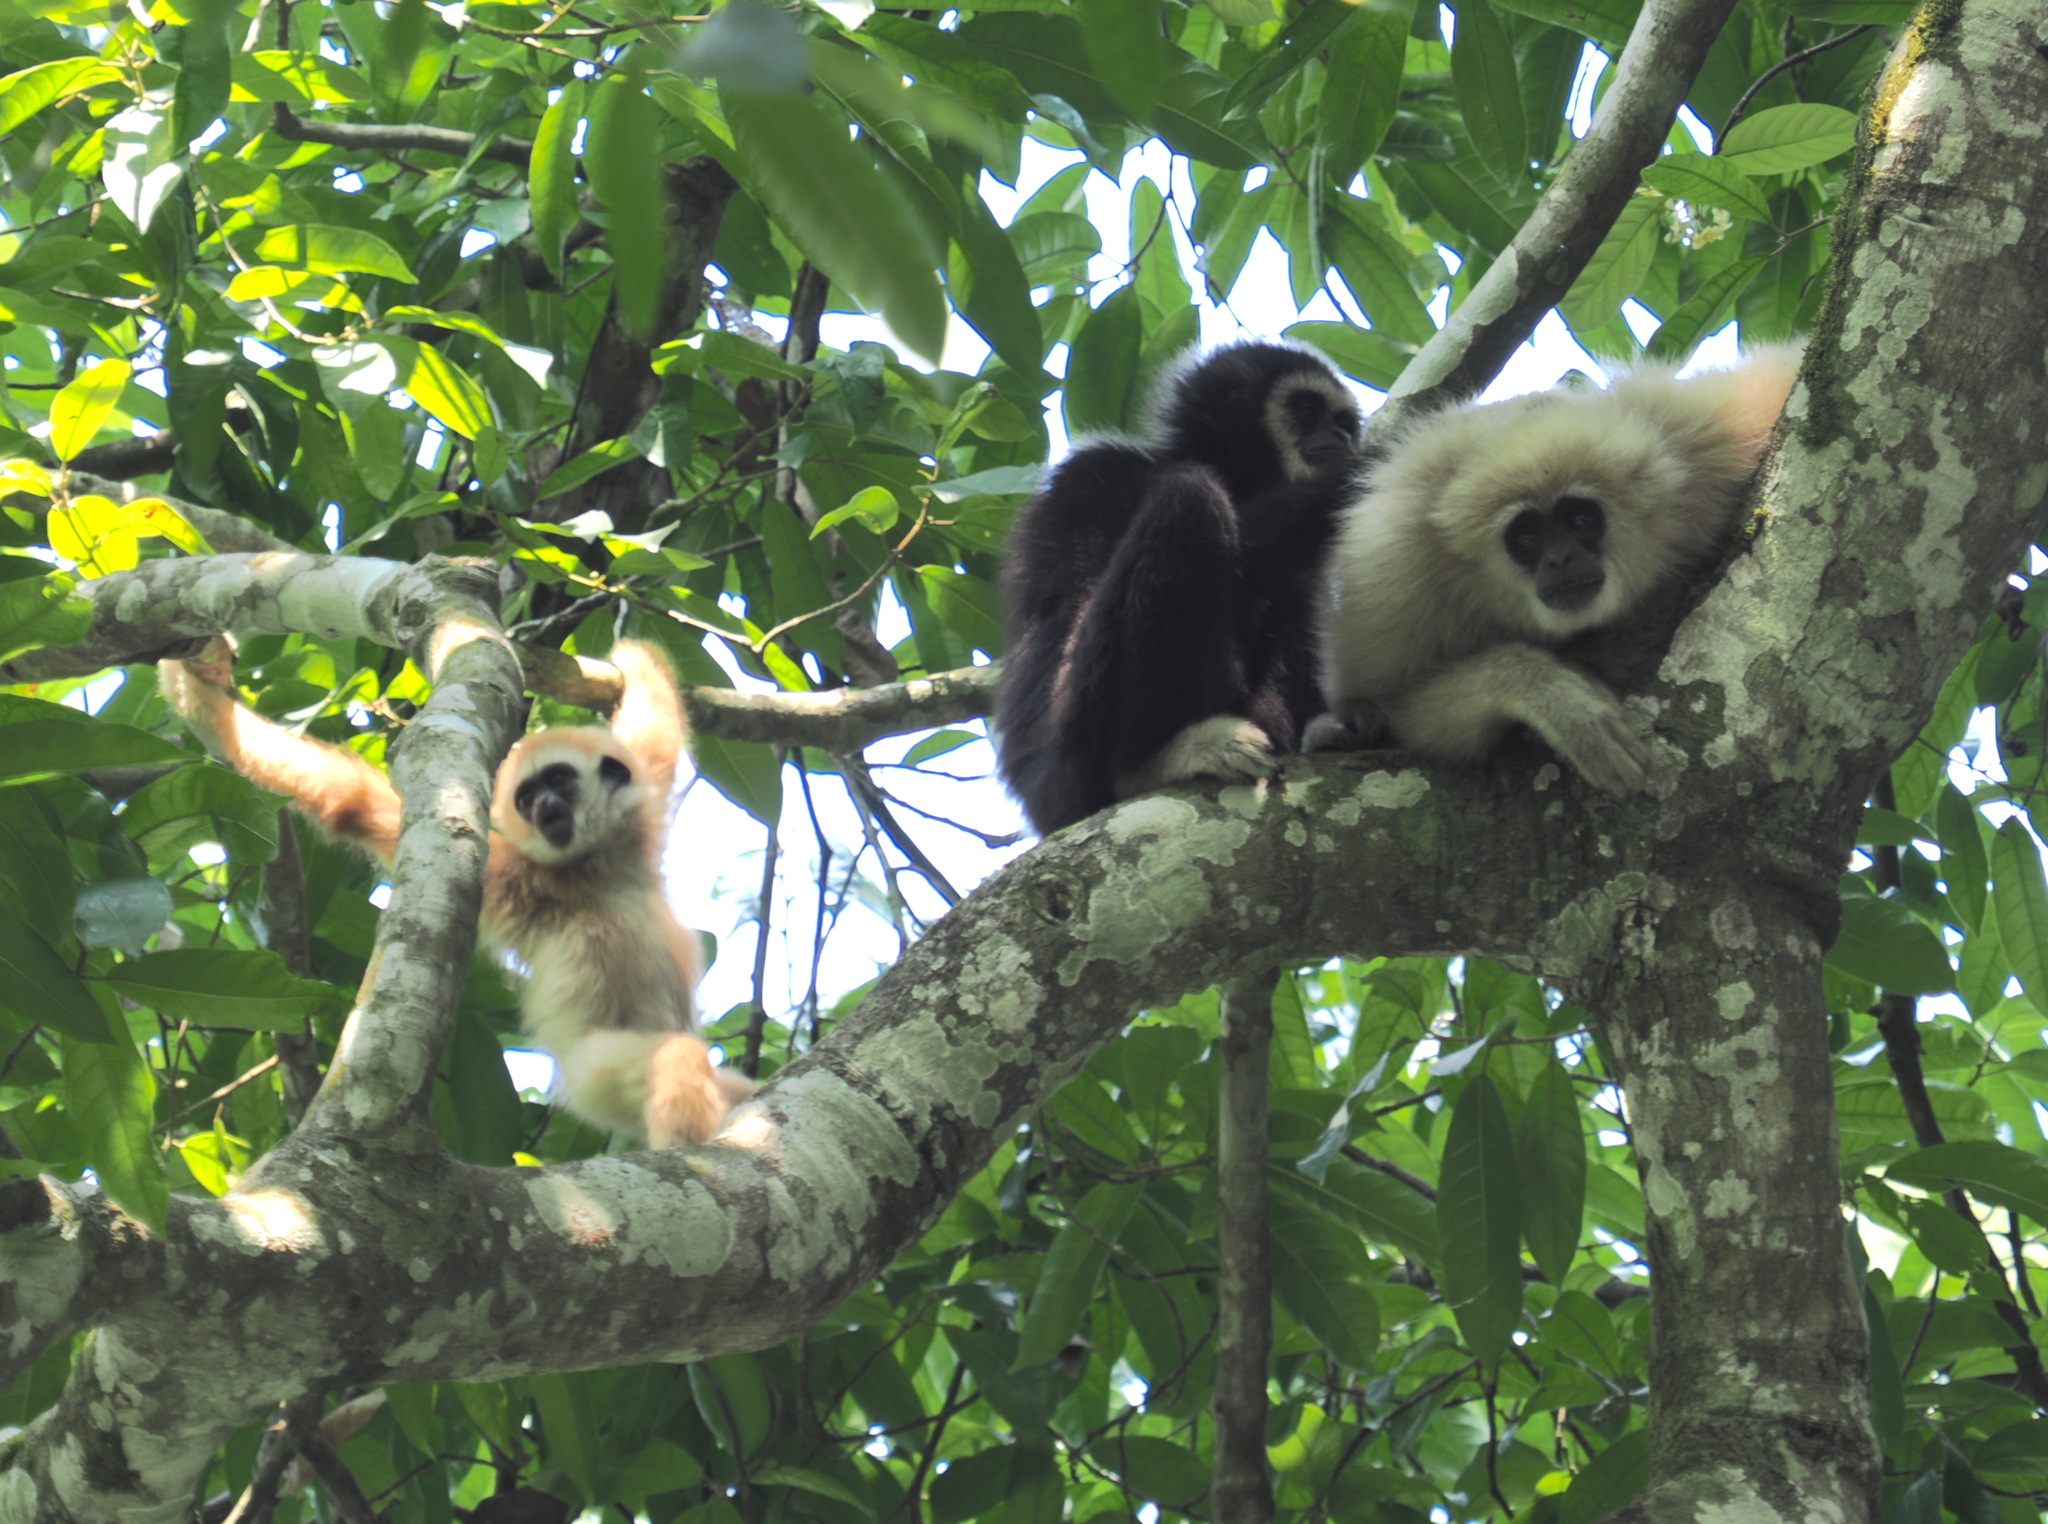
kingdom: Animalia
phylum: Chordata
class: Mammalia
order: Primates
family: Hylobatidae
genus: Hylobates
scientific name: Hylobates lar
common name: Lar gibbon
